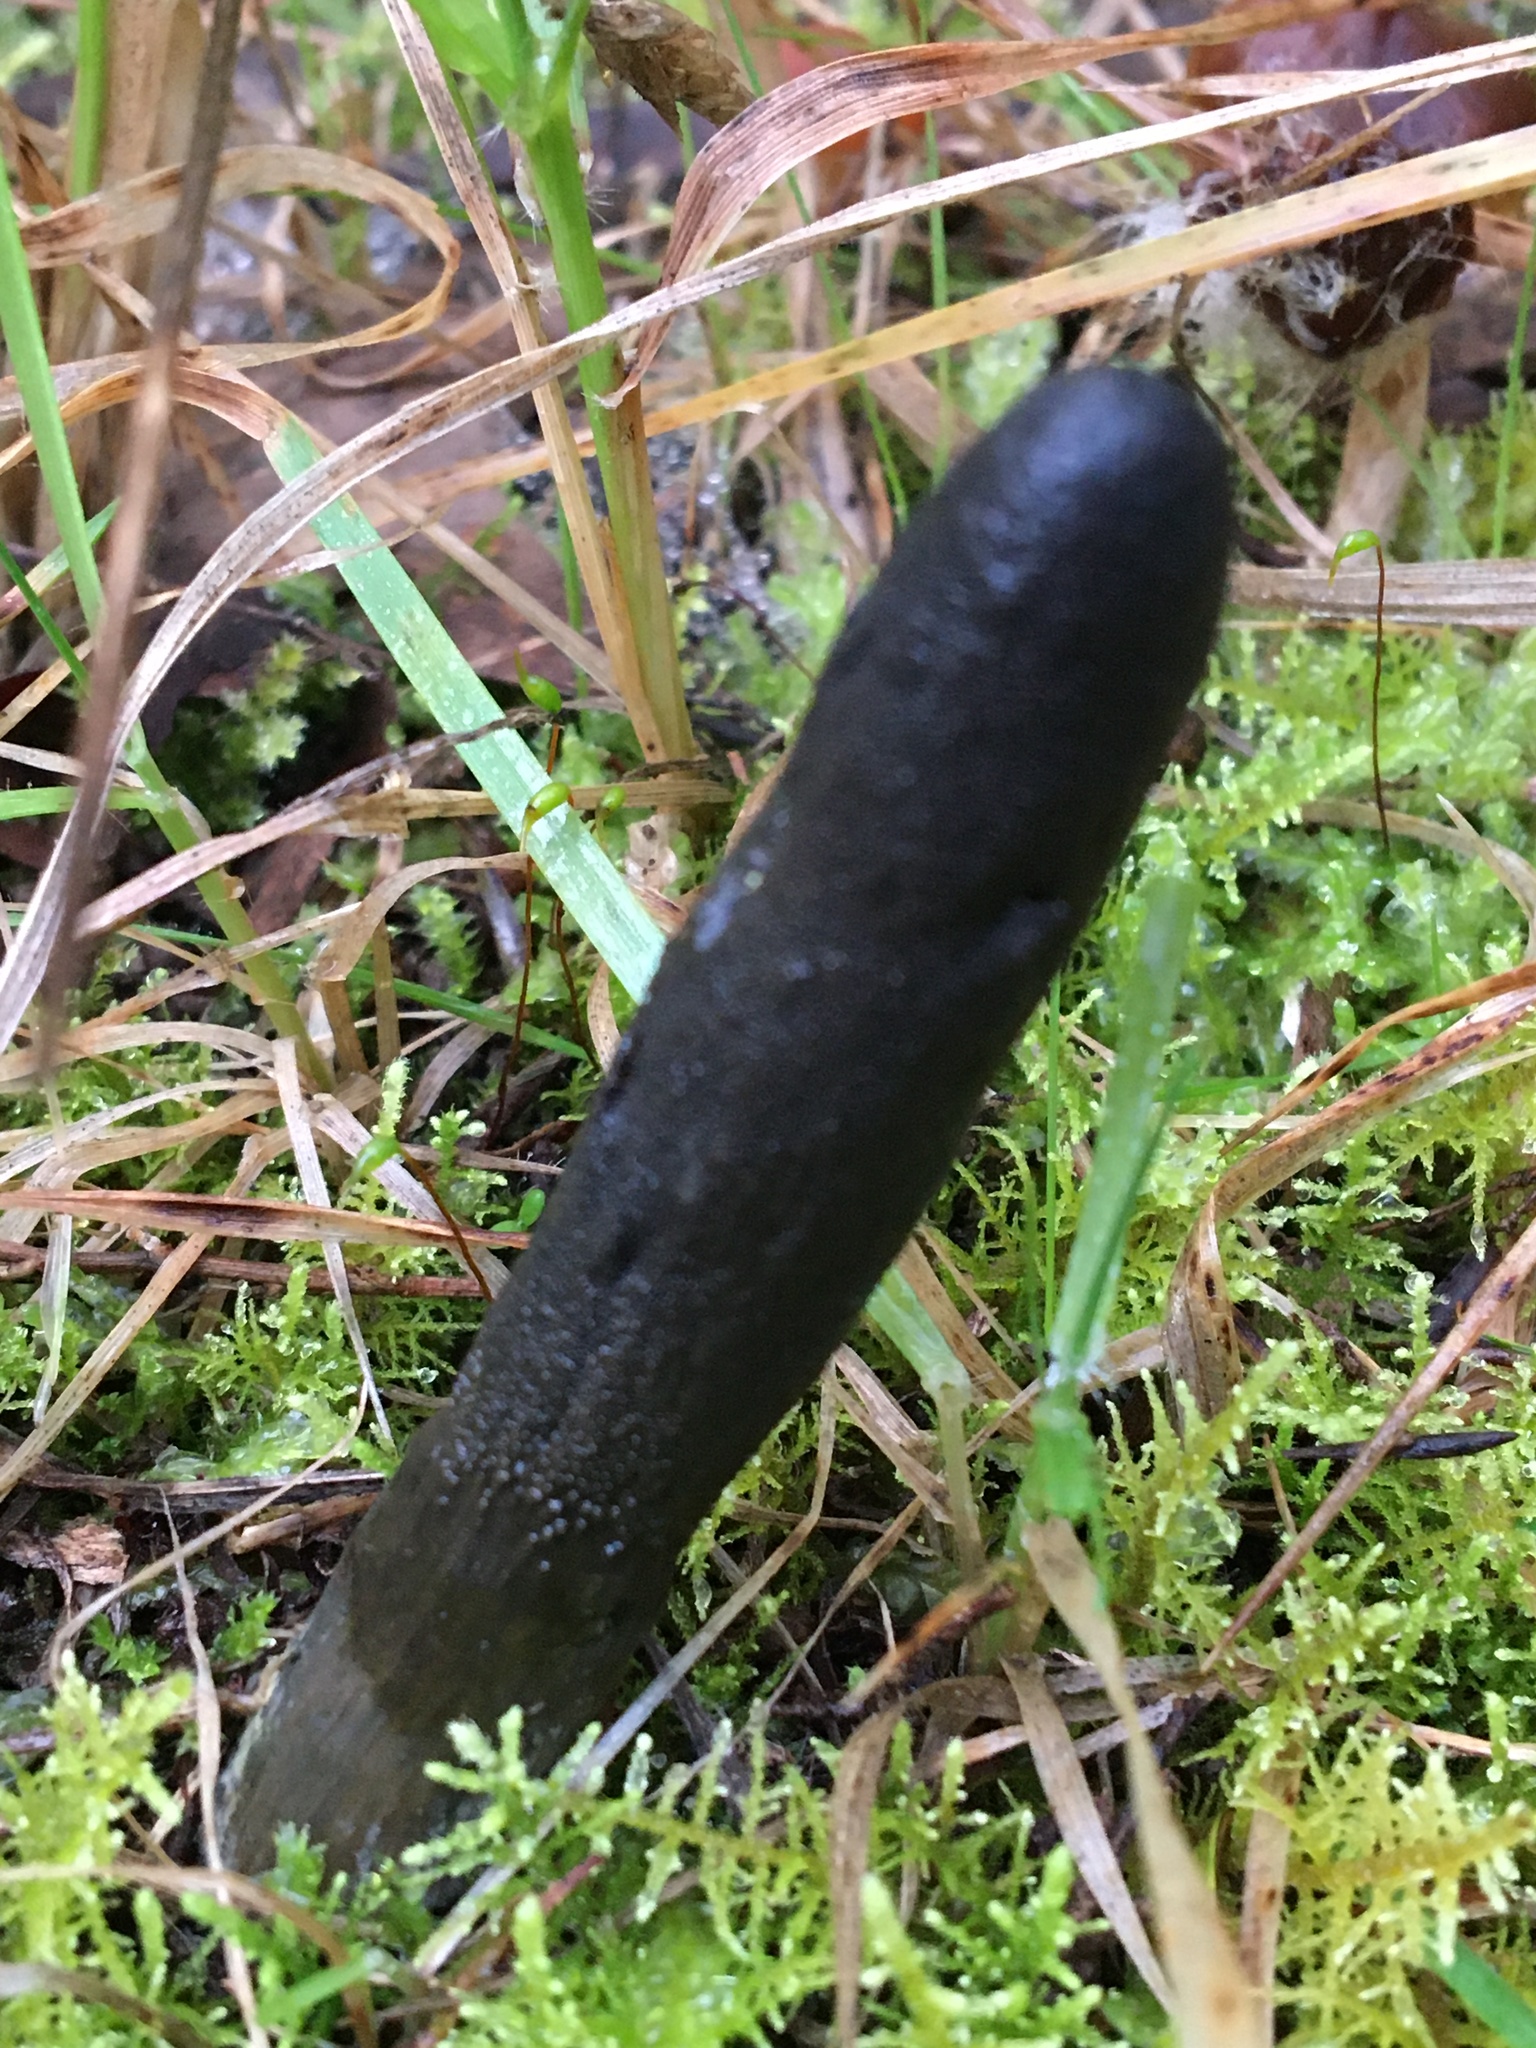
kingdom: Fungi
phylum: Ascomycota
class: Sordariomycetes
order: Hypocreales
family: Clavicipitaceae
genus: Drechmeria
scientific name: Drechmeria gunnii
